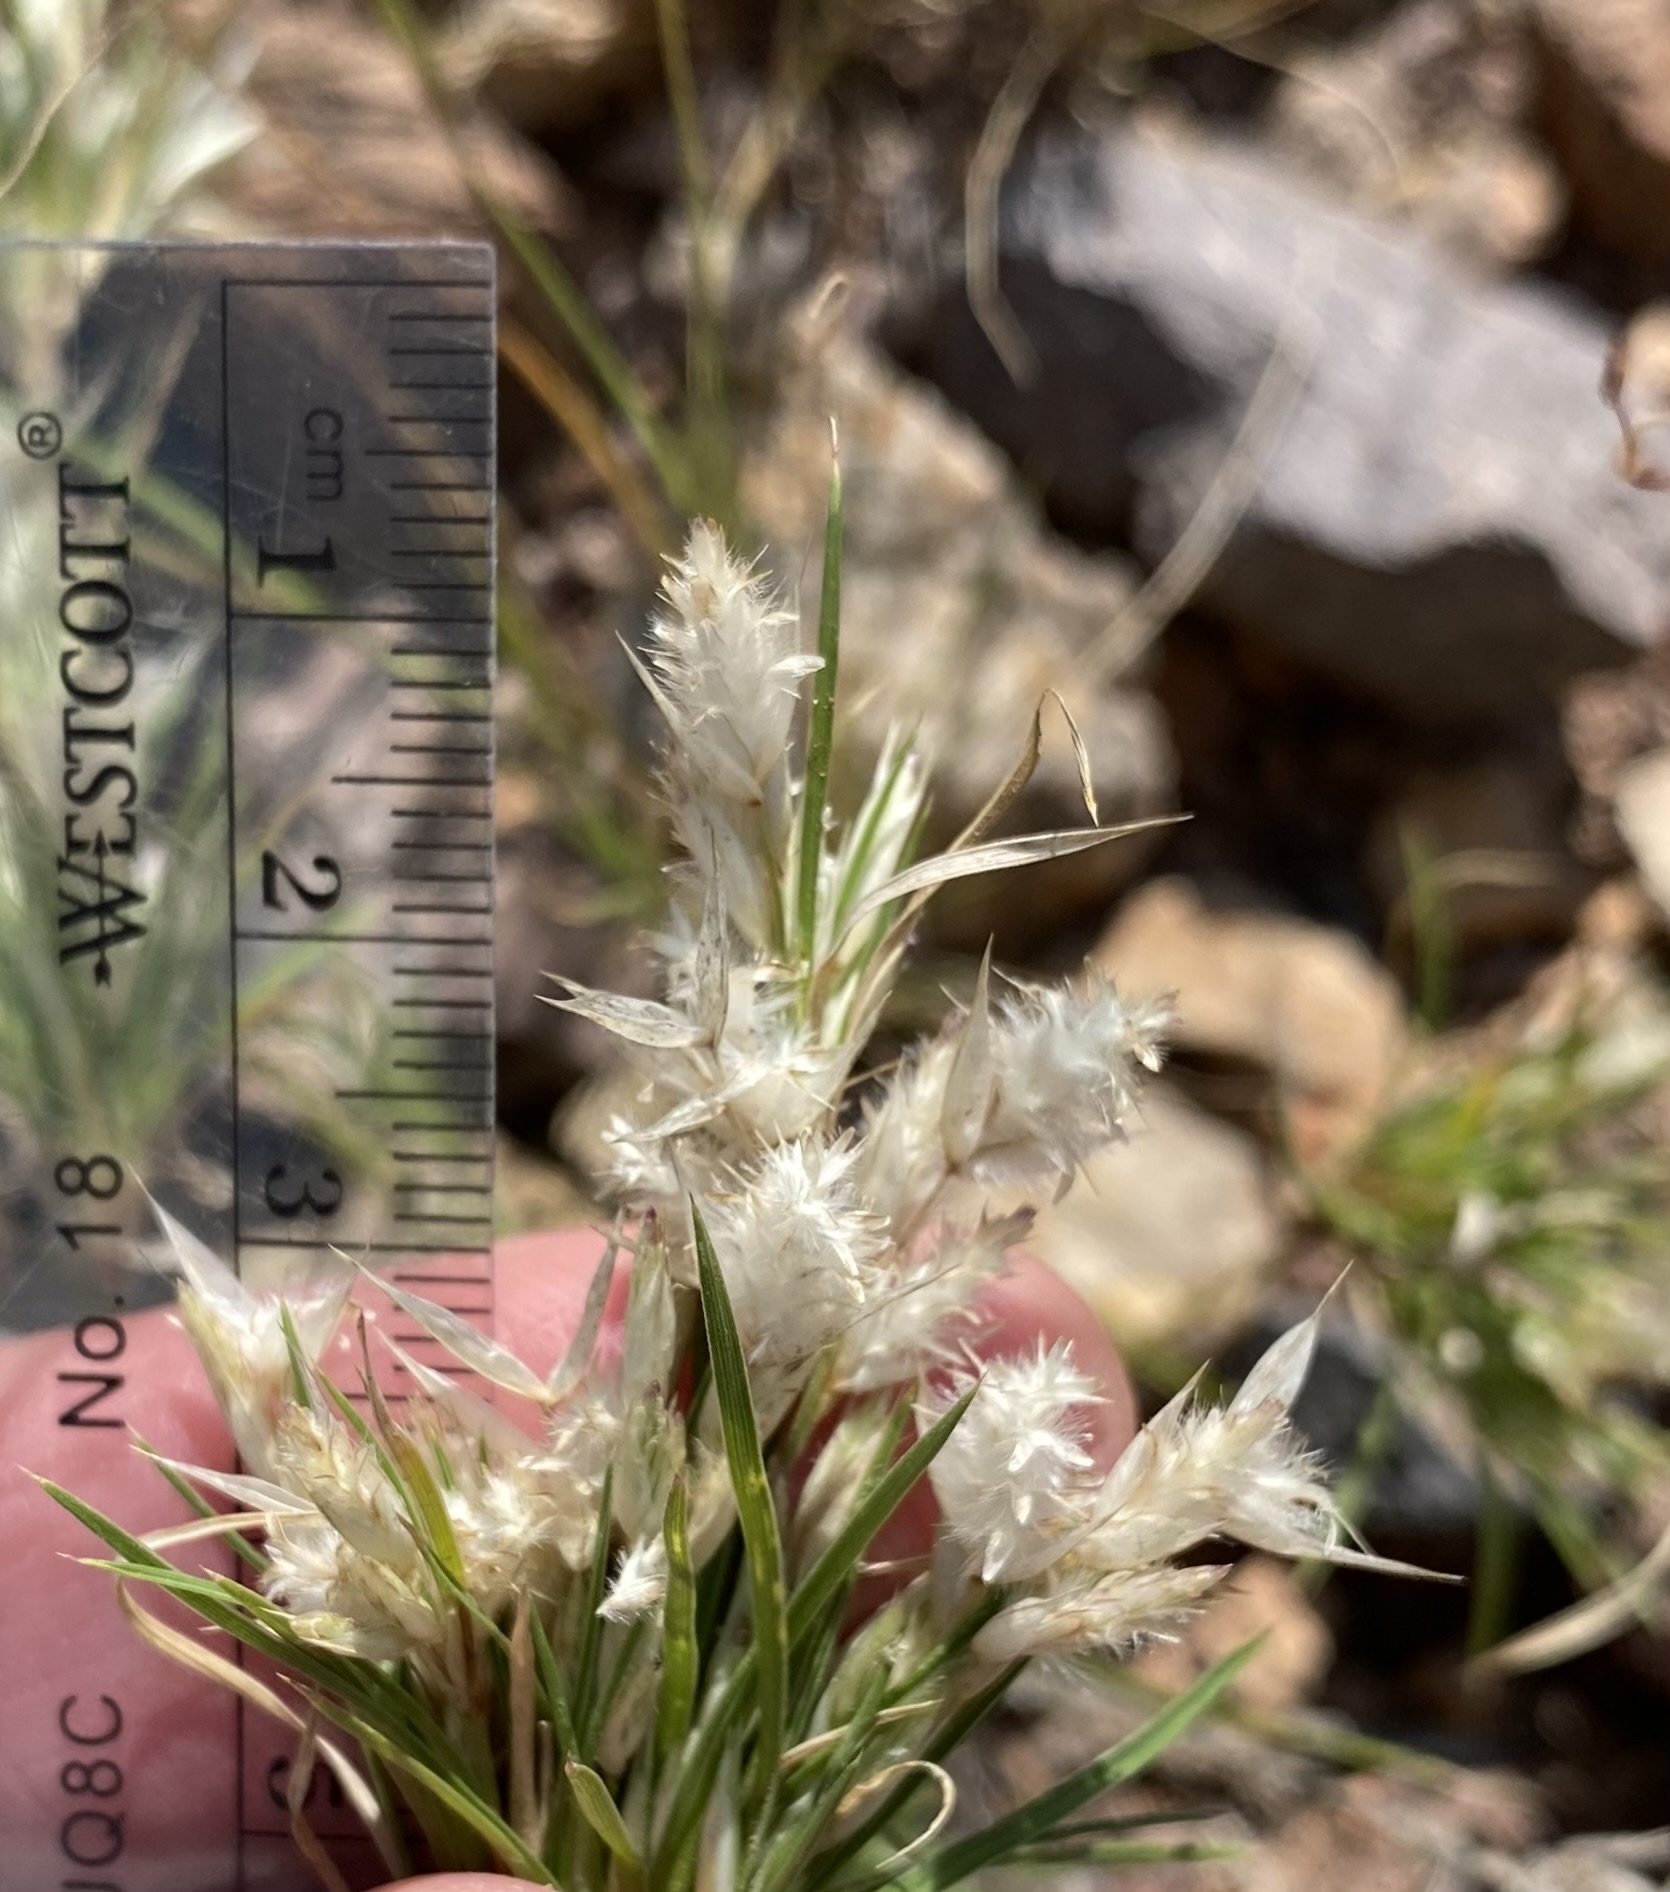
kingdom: Plantae
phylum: Tracheophyta
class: Liliopsida
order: Poales
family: Poaceae
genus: Dasyochloa
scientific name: Dasyochloa pulchella
